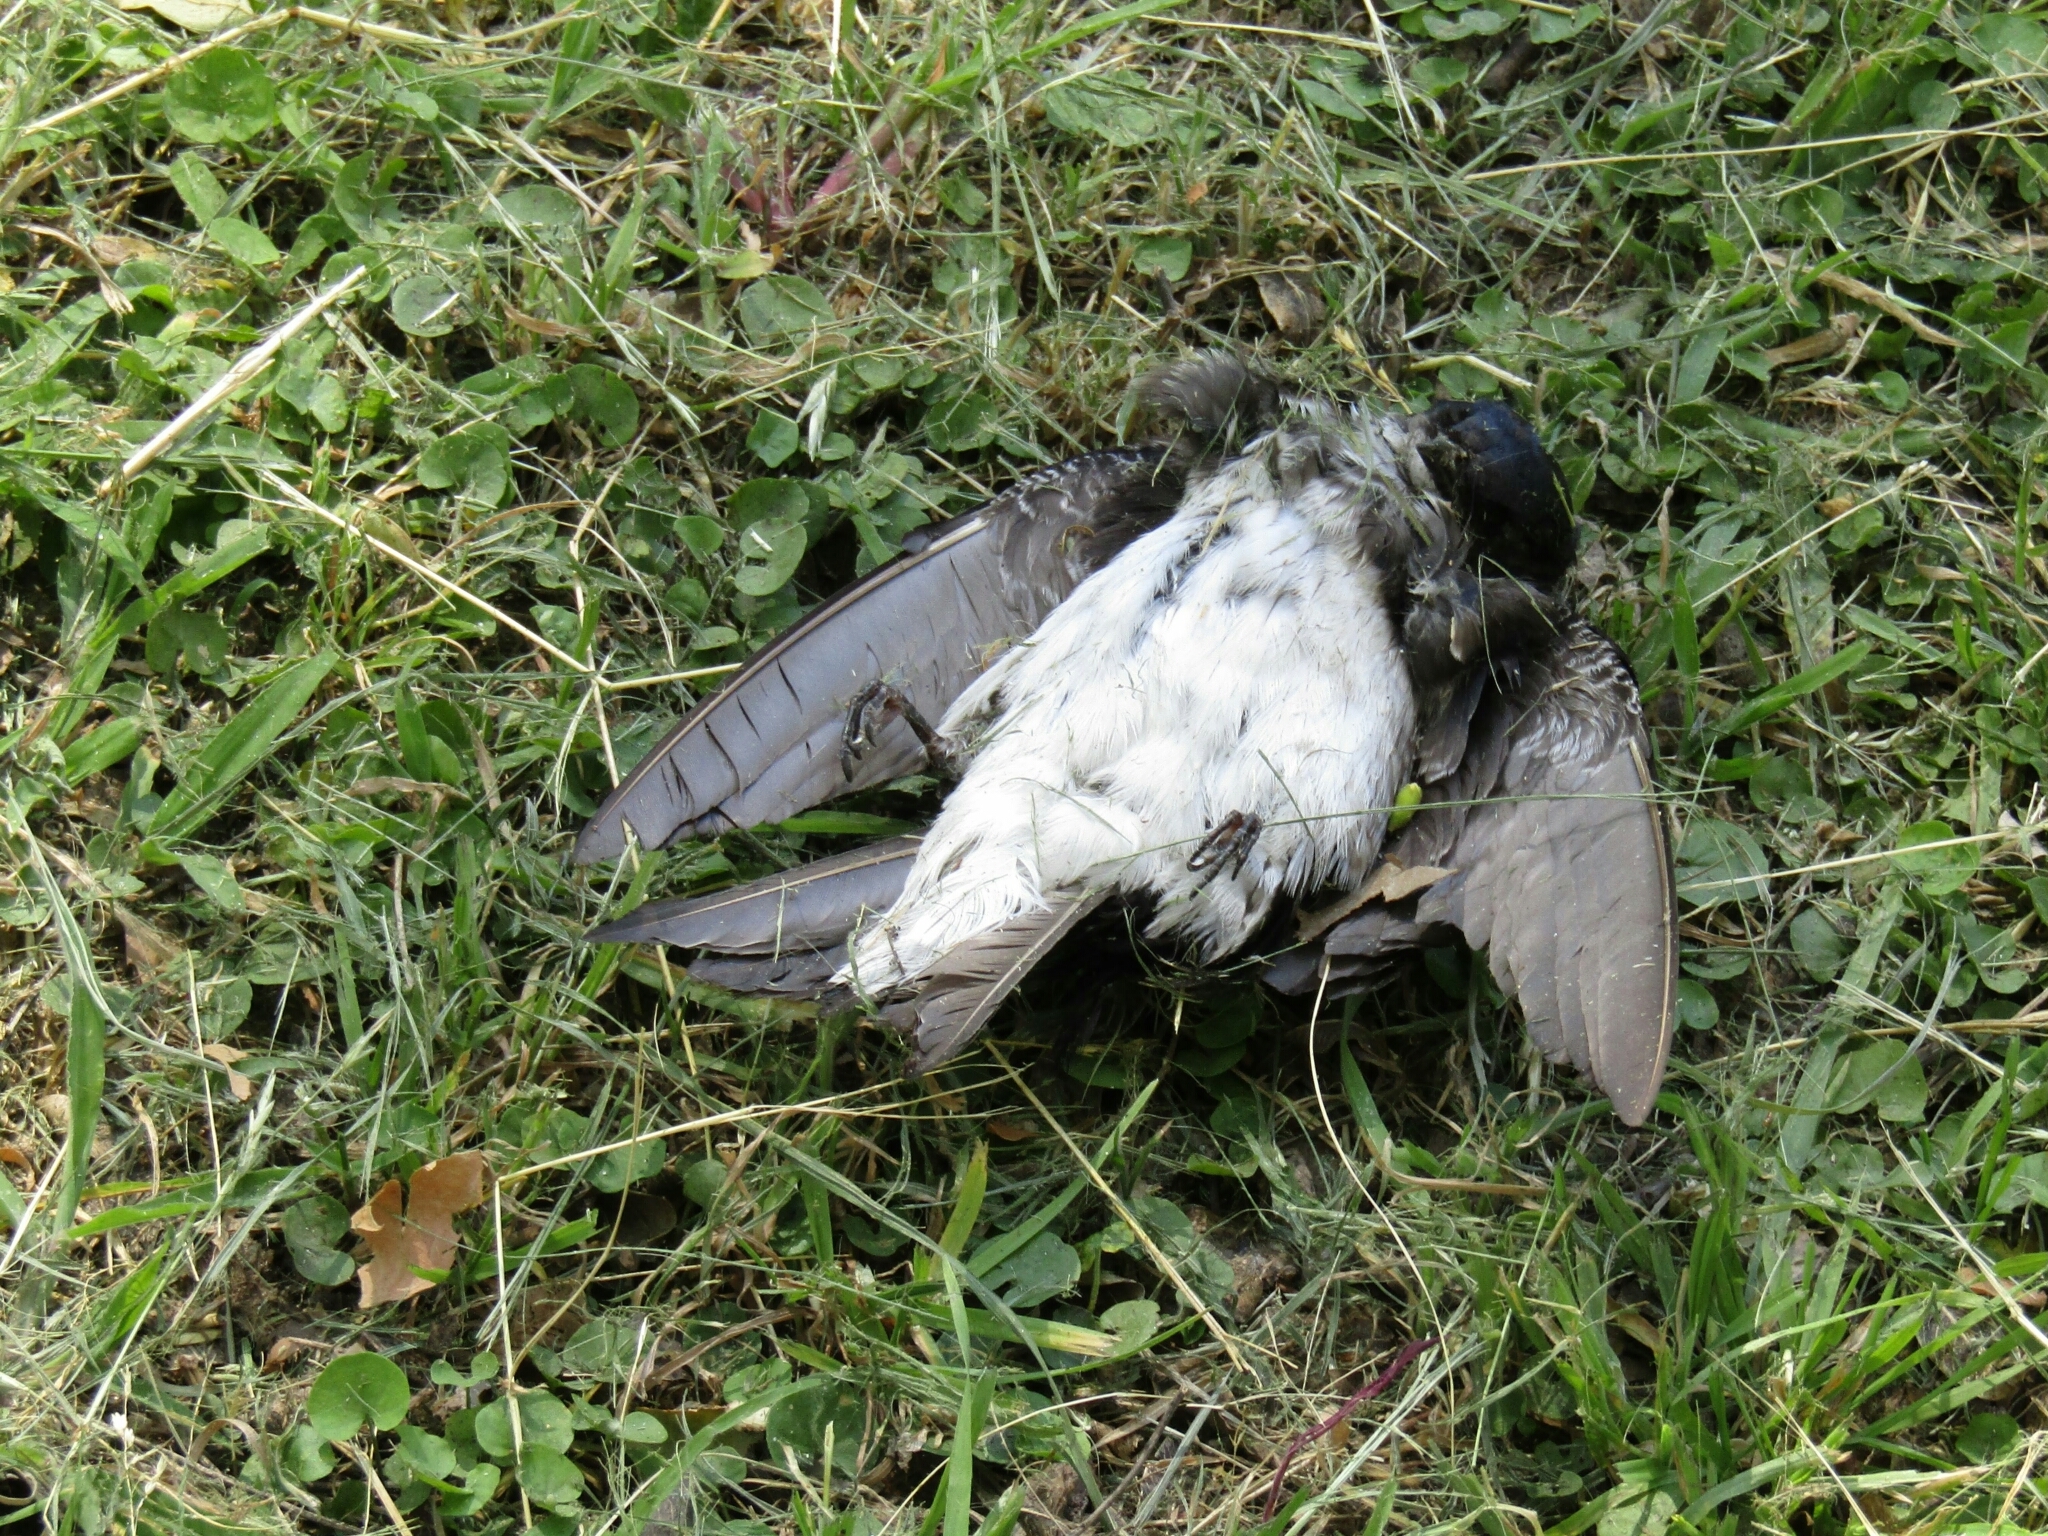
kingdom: Animalia
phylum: Chordata
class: Aves
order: Passeriformes
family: Hirundinidae
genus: Progne
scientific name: Progne chalybea
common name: Grey-breasted martin
